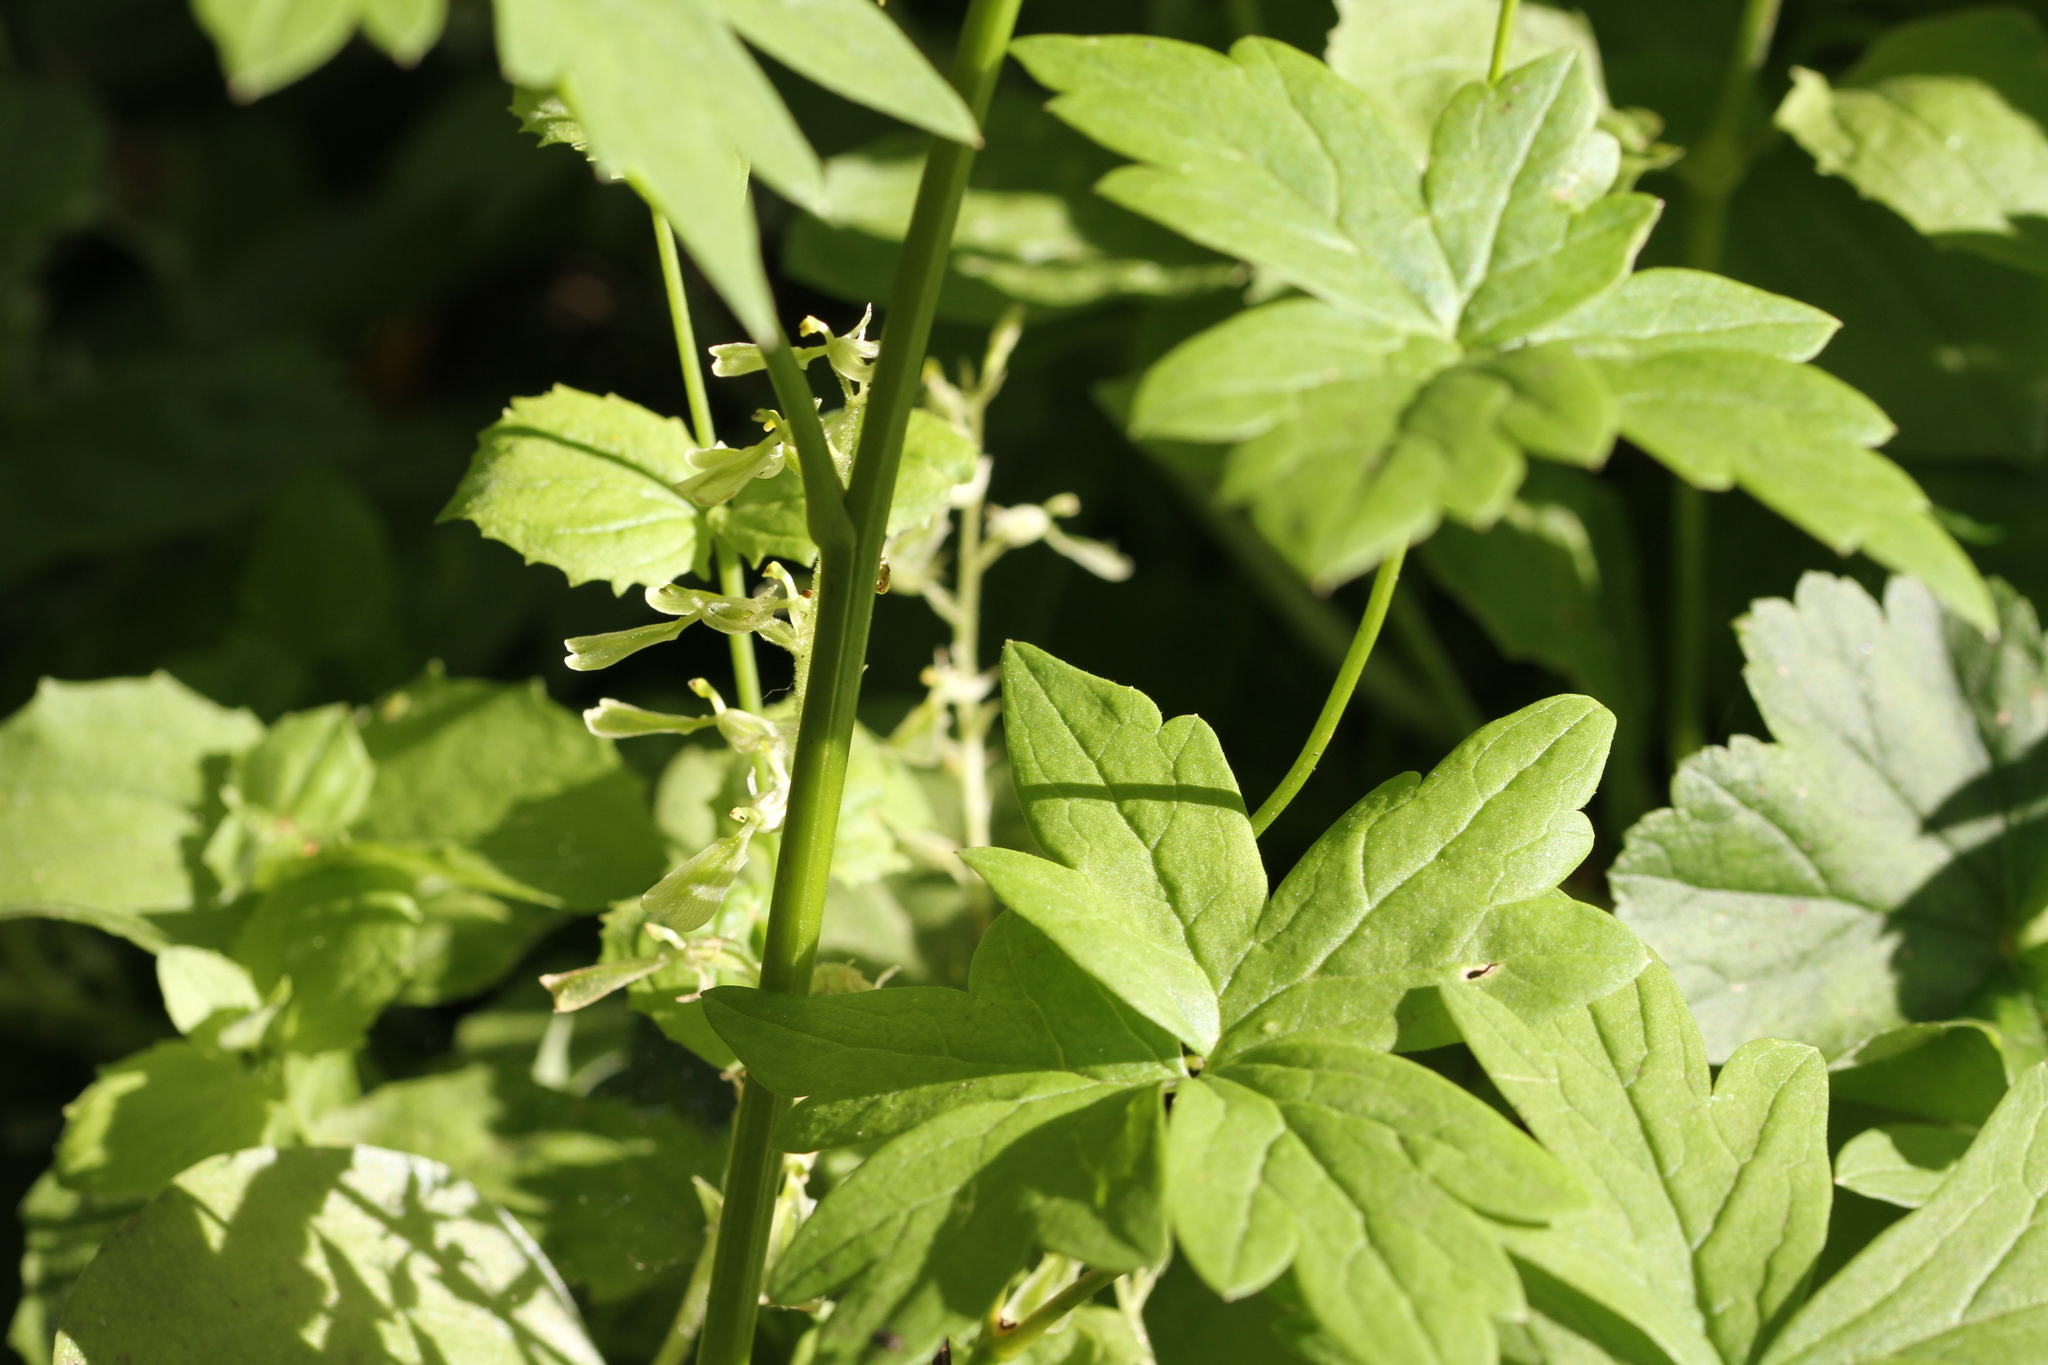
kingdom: Plantae
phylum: Tracheophyta
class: Liliopsida
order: Asparagales
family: Orchidaceae
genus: Neottia
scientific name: Neottia convallarioides
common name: Broadleaf twayblade
